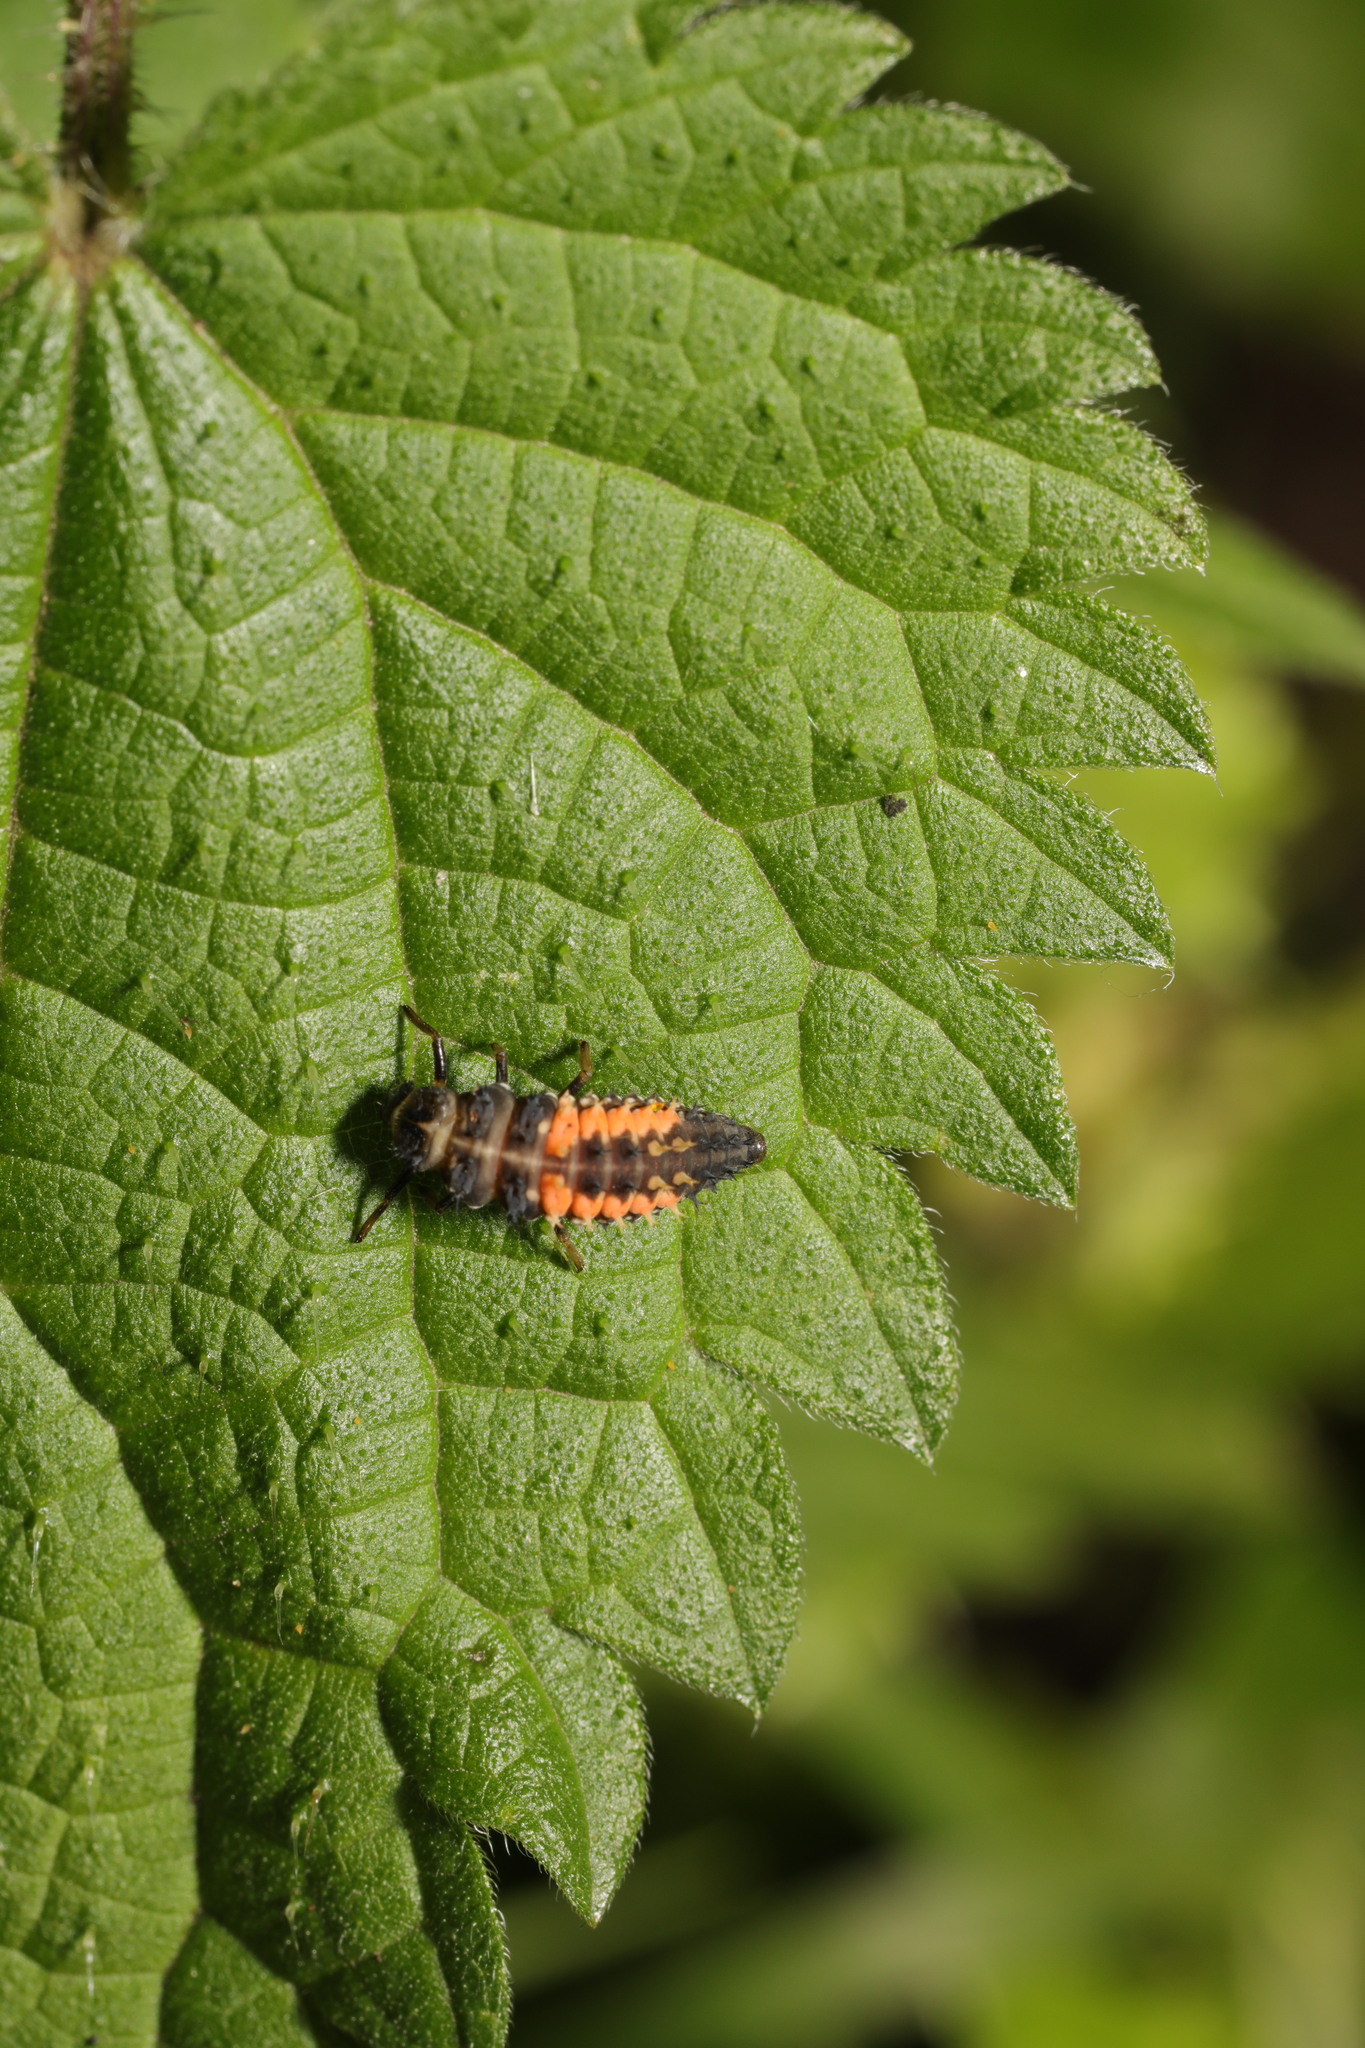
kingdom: Animalia
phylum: Arthropoda
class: Insecta
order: Coleoptera
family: Coccinellidae
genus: Harmonia
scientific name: Harmonia axyridis
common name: Harlequin ladybird
